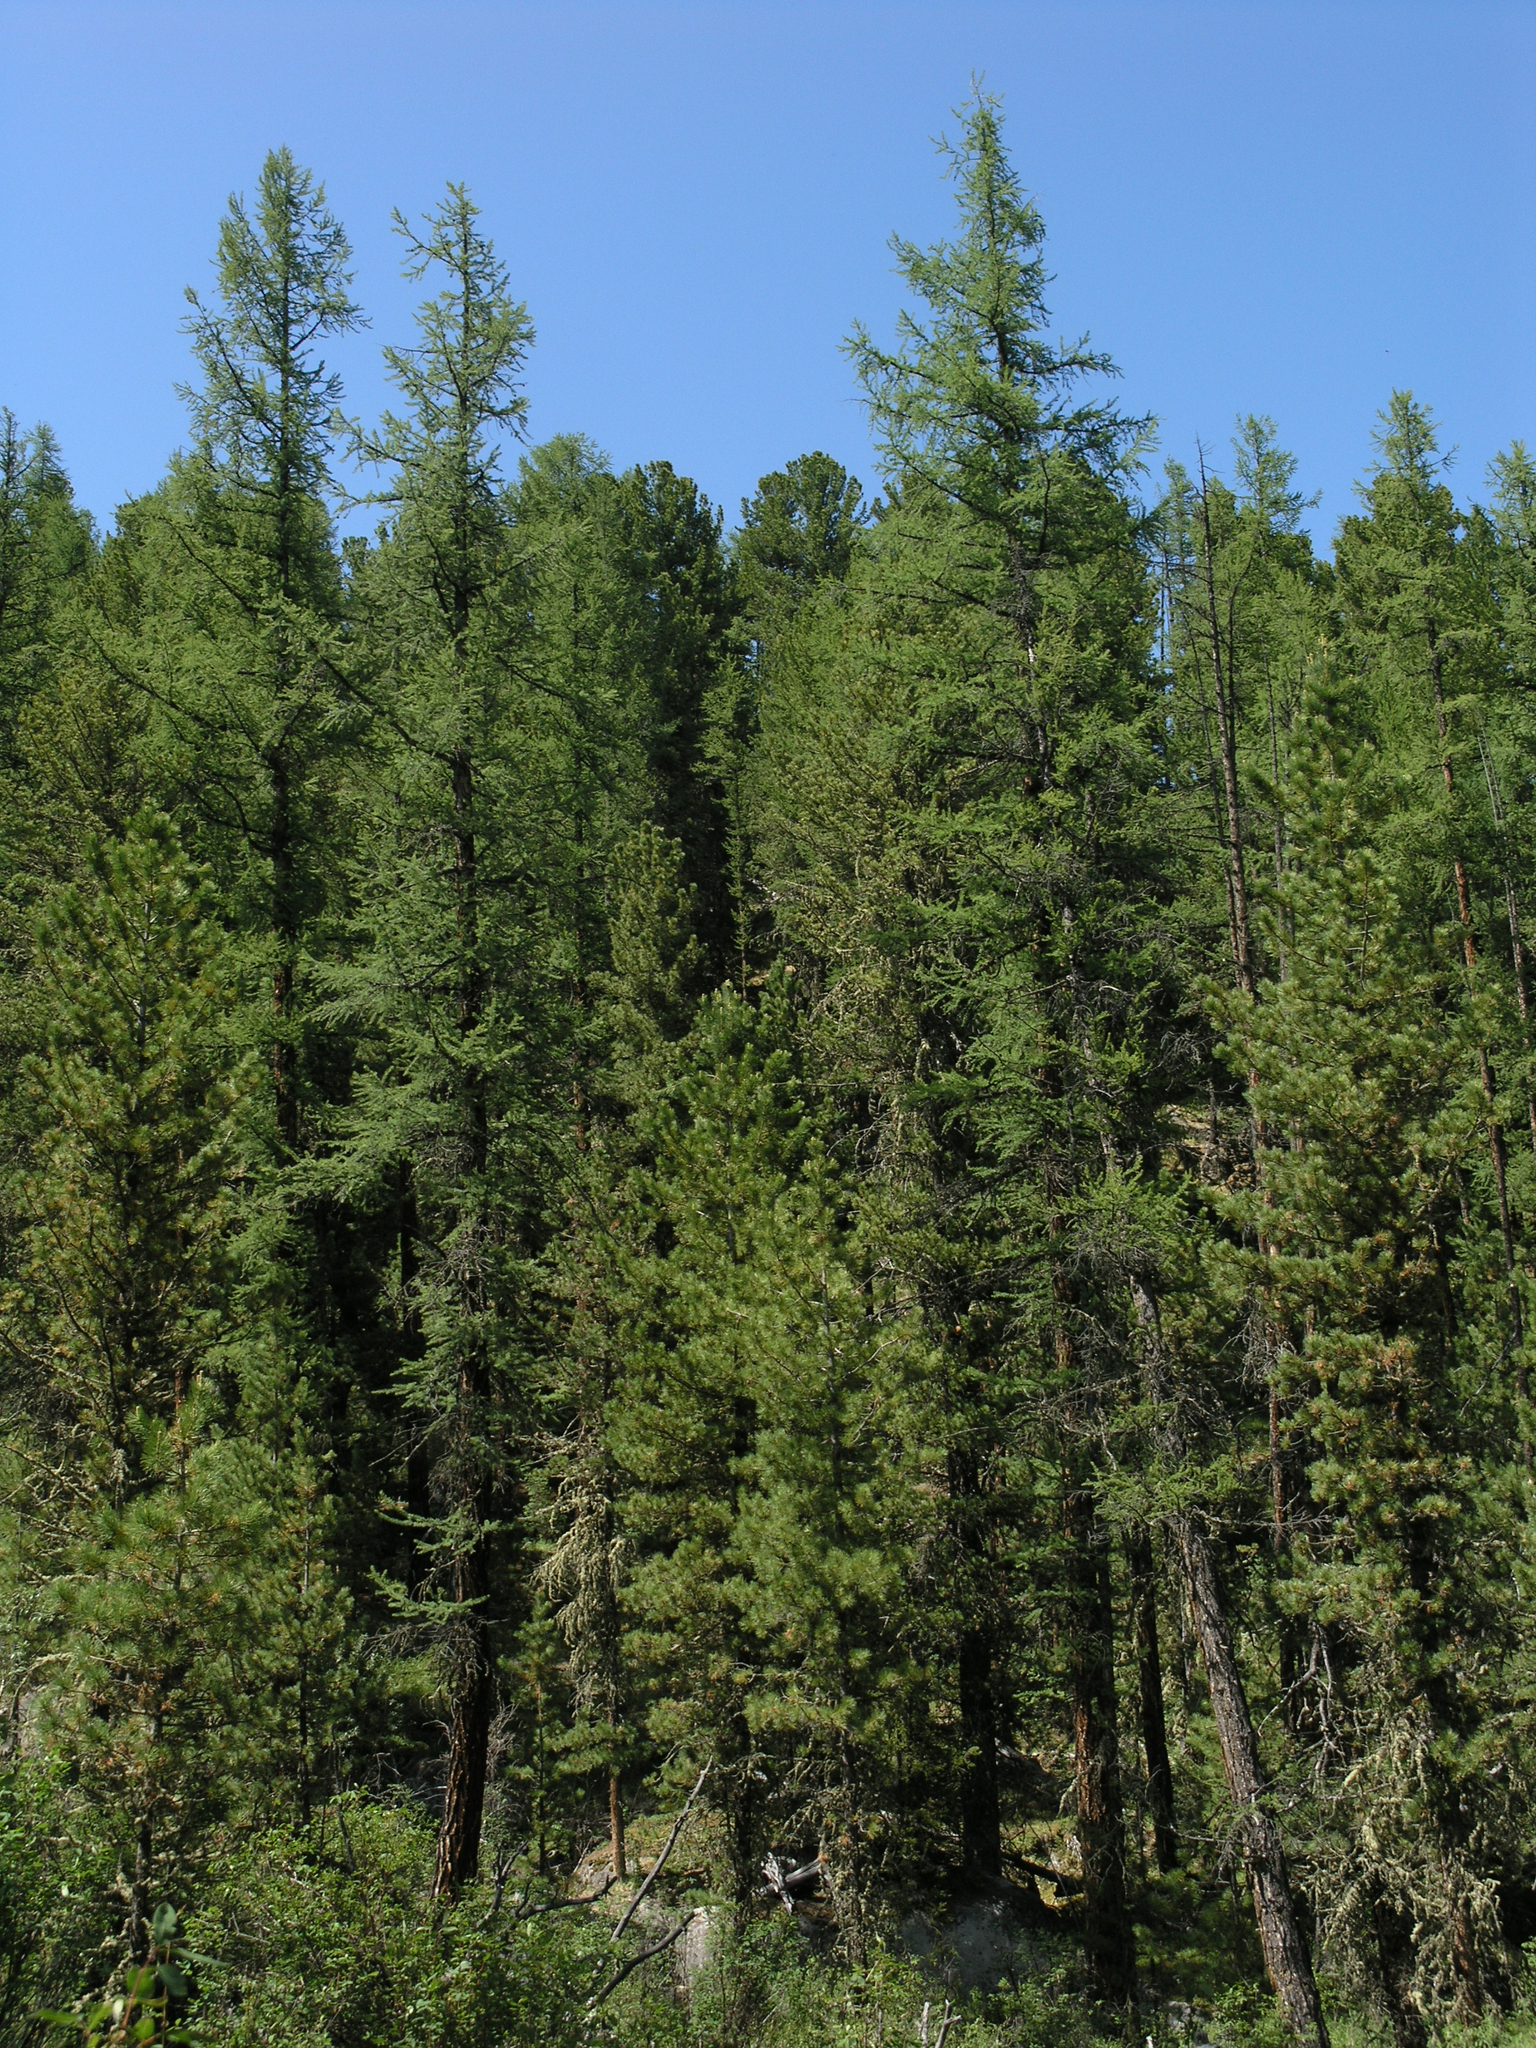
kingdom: Plantae
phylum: Tracheophyta
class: Pinopsida
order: Pinales
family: Pinaceae
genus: Larix
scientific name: Larix sibirica
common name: Siberian larch
